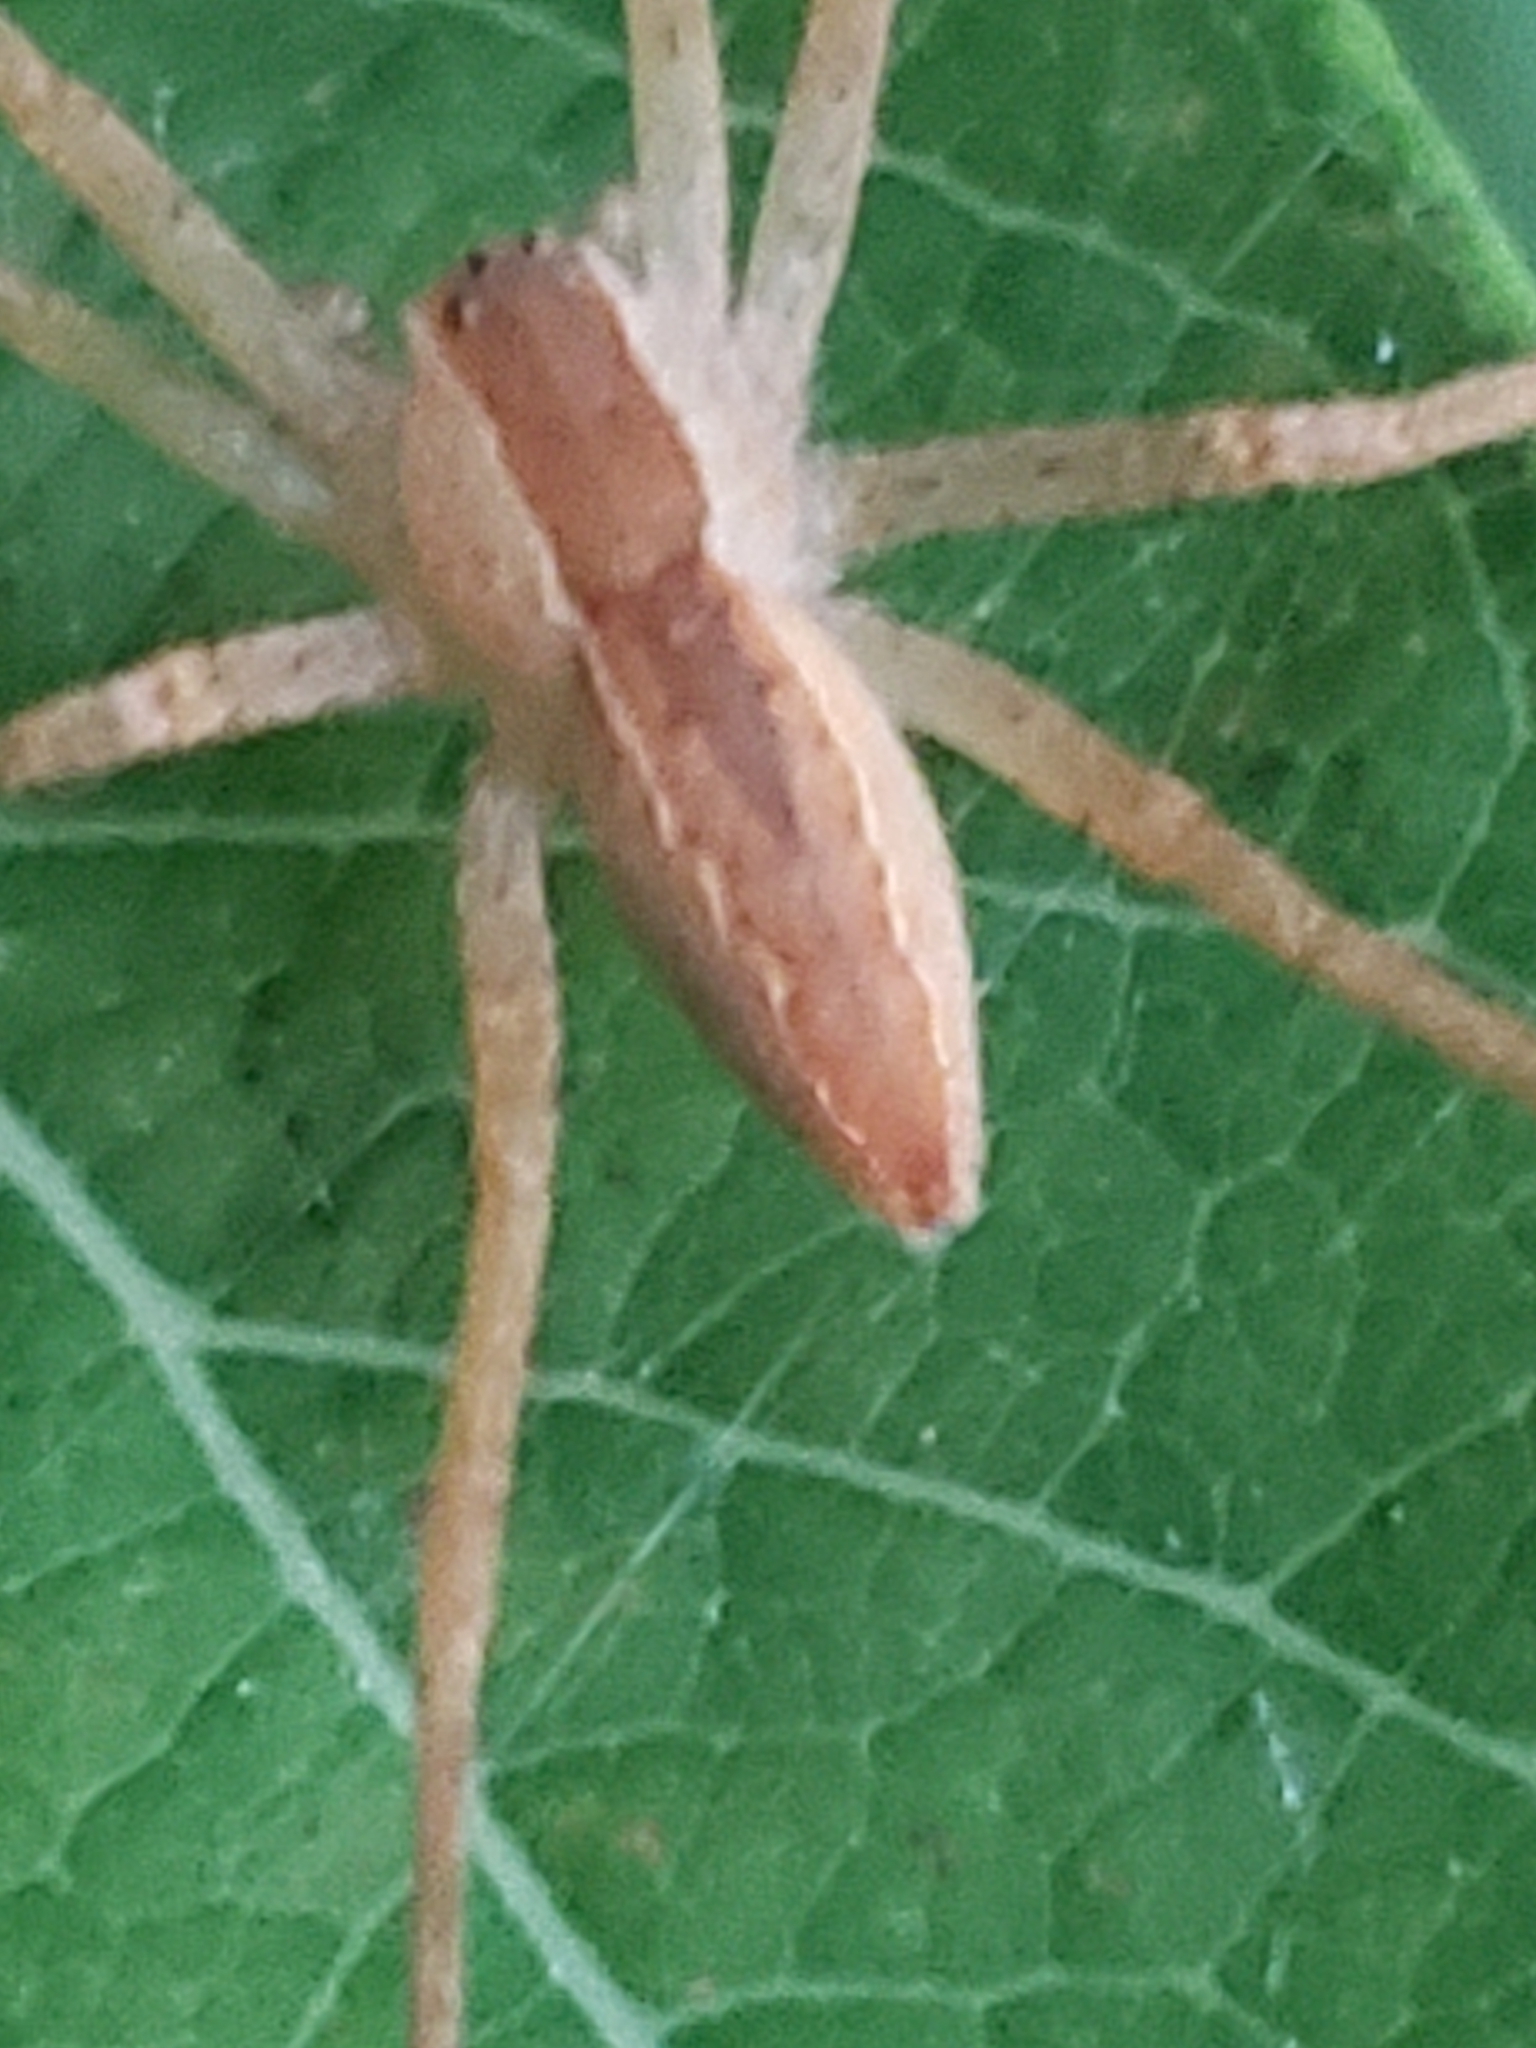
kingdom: Animalia
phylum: Arthropoda
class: Arachnida
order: Araneae
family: Pisauridae
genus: Pisaurina
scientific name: Pisaurina mira
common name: American nursery web spider
